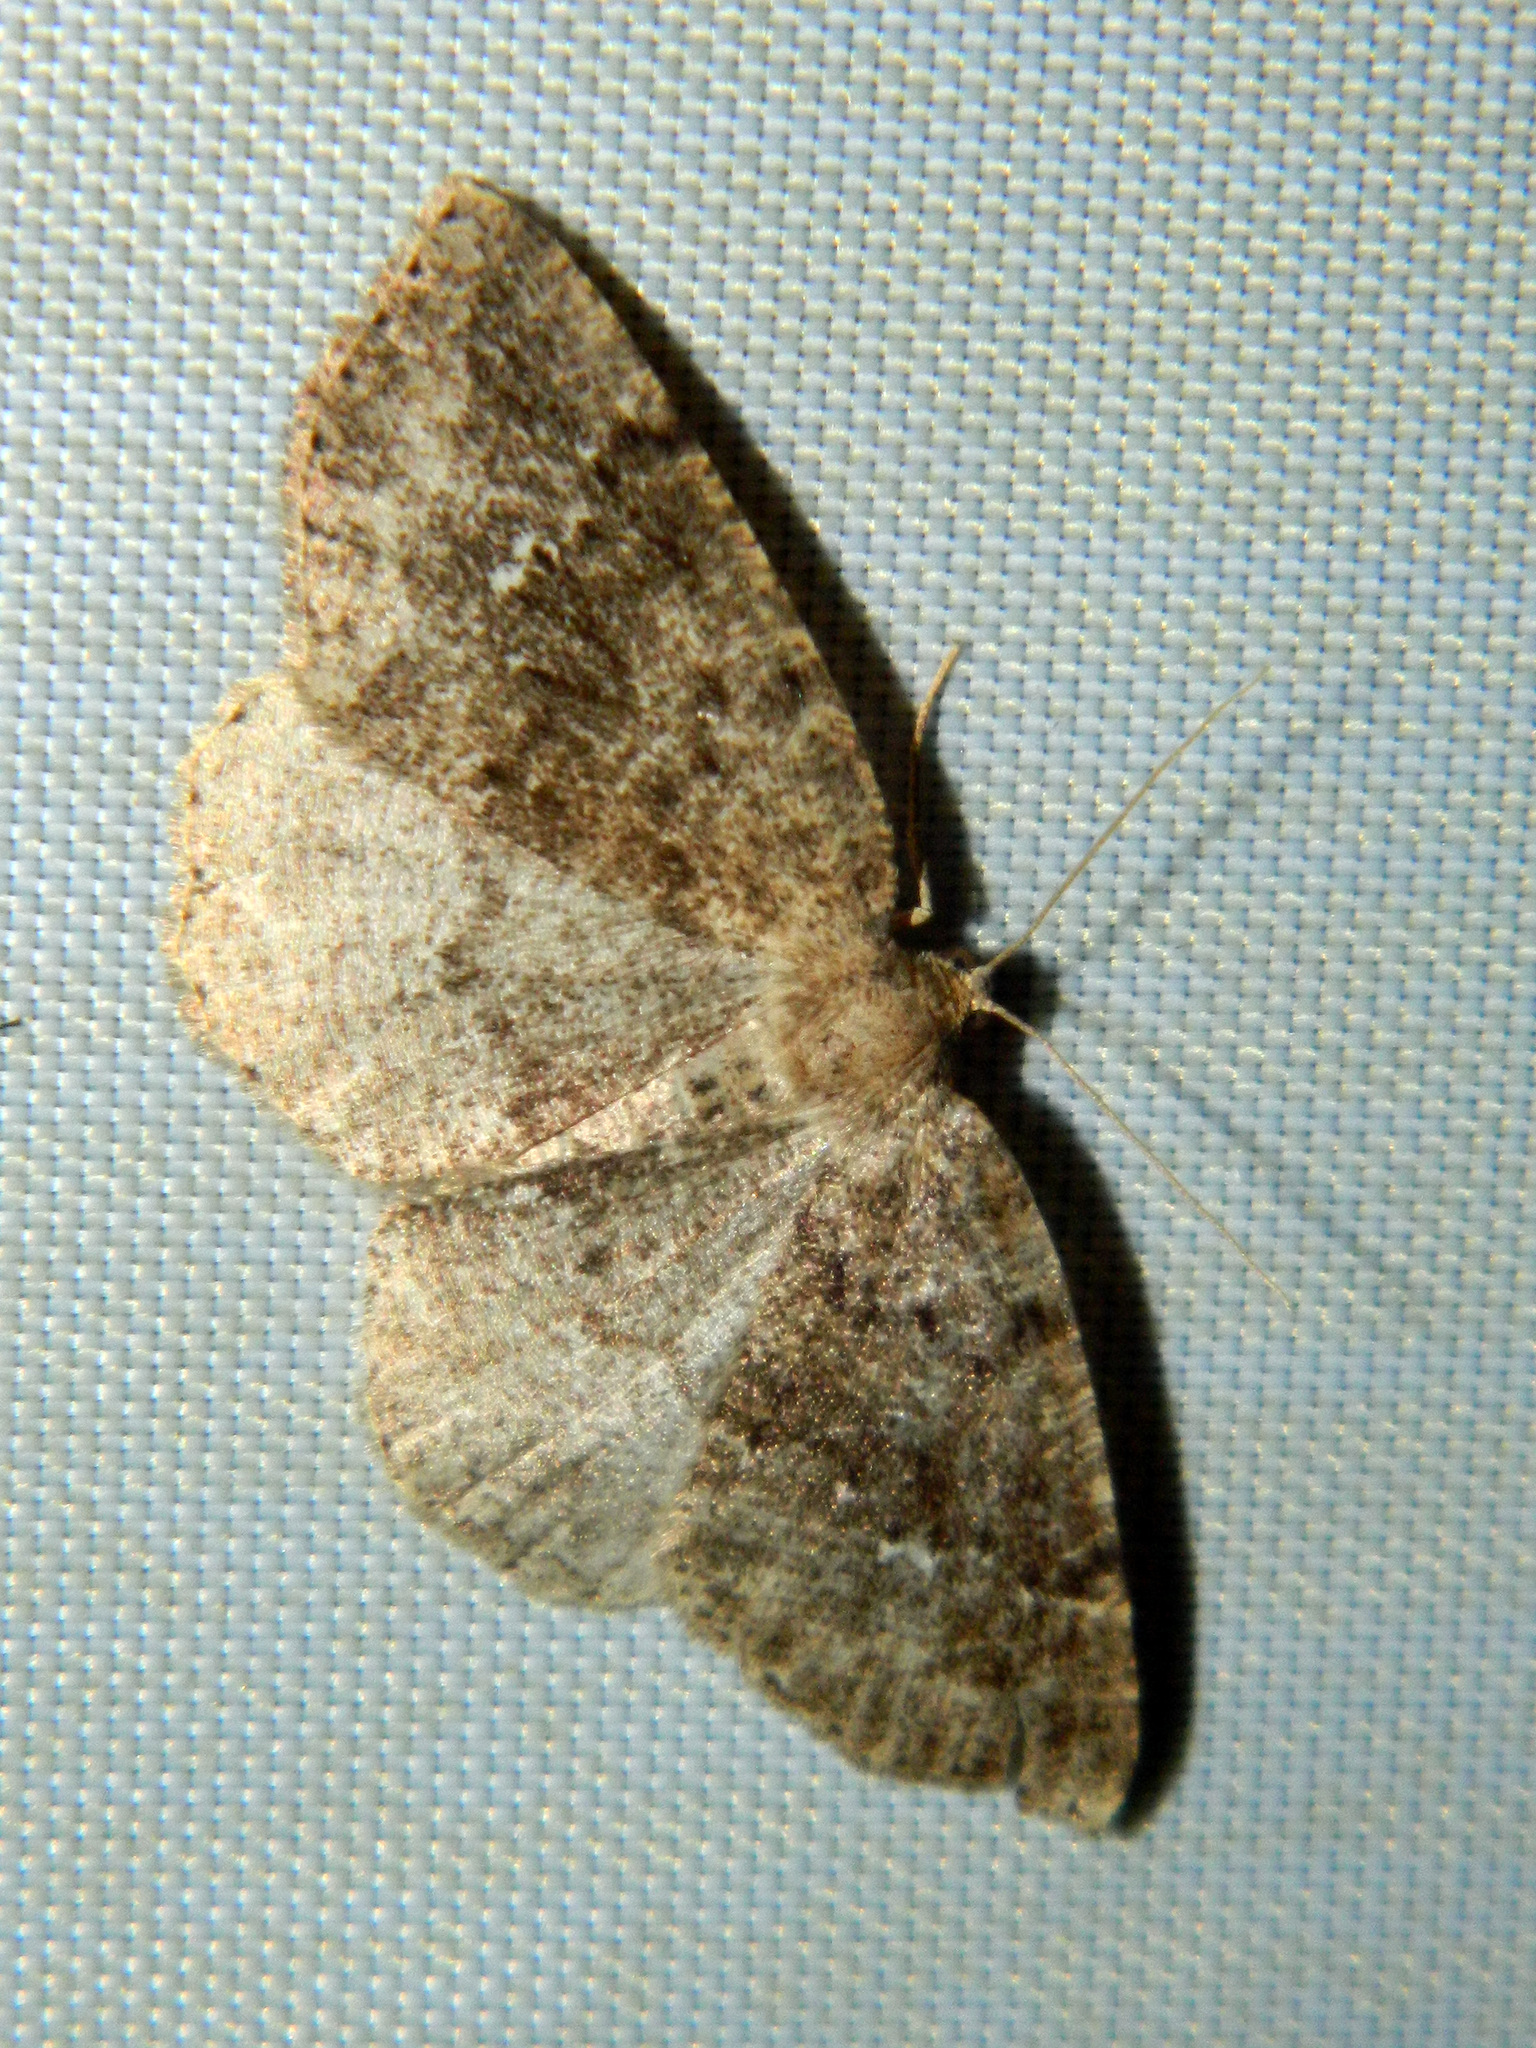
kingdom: Animalia
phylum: Arthropoda
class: Insecta
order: Lepidoptera
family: Geometridae
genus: Homochlodes
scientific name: Homochlodes fritillaria
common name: Pale homochlodes
